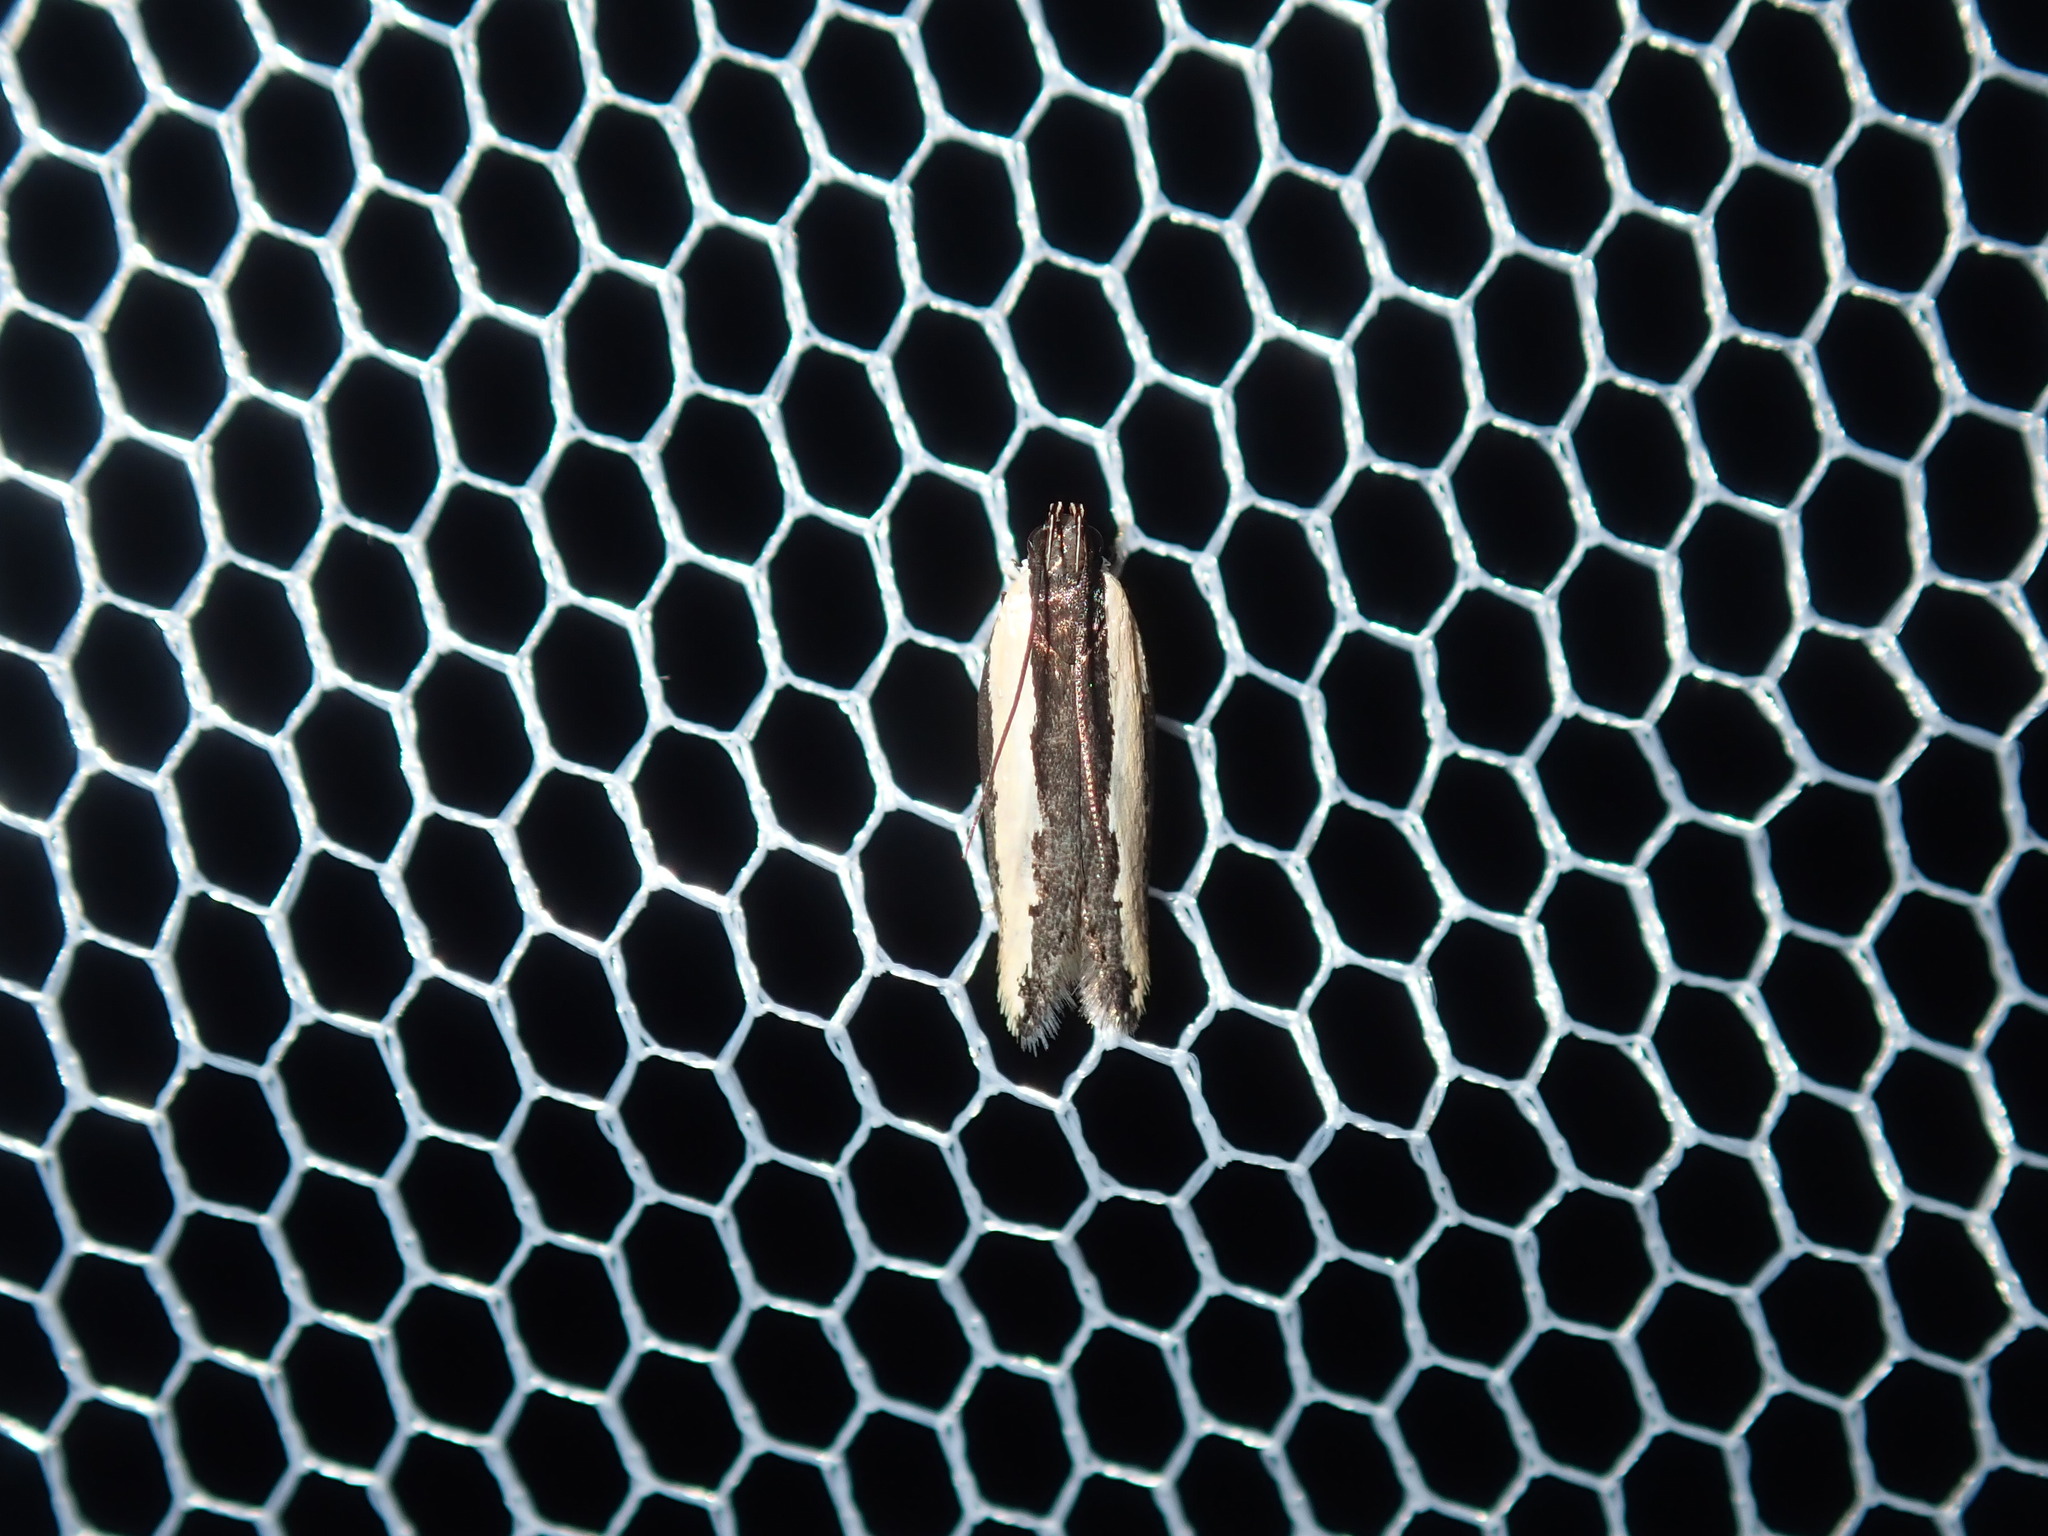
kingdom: Animalia
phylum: Arthropoda
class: Insecta
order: Lepidoptera
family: Gelechiidae
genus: Ardozyga
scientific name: Ardozyga stratifera
